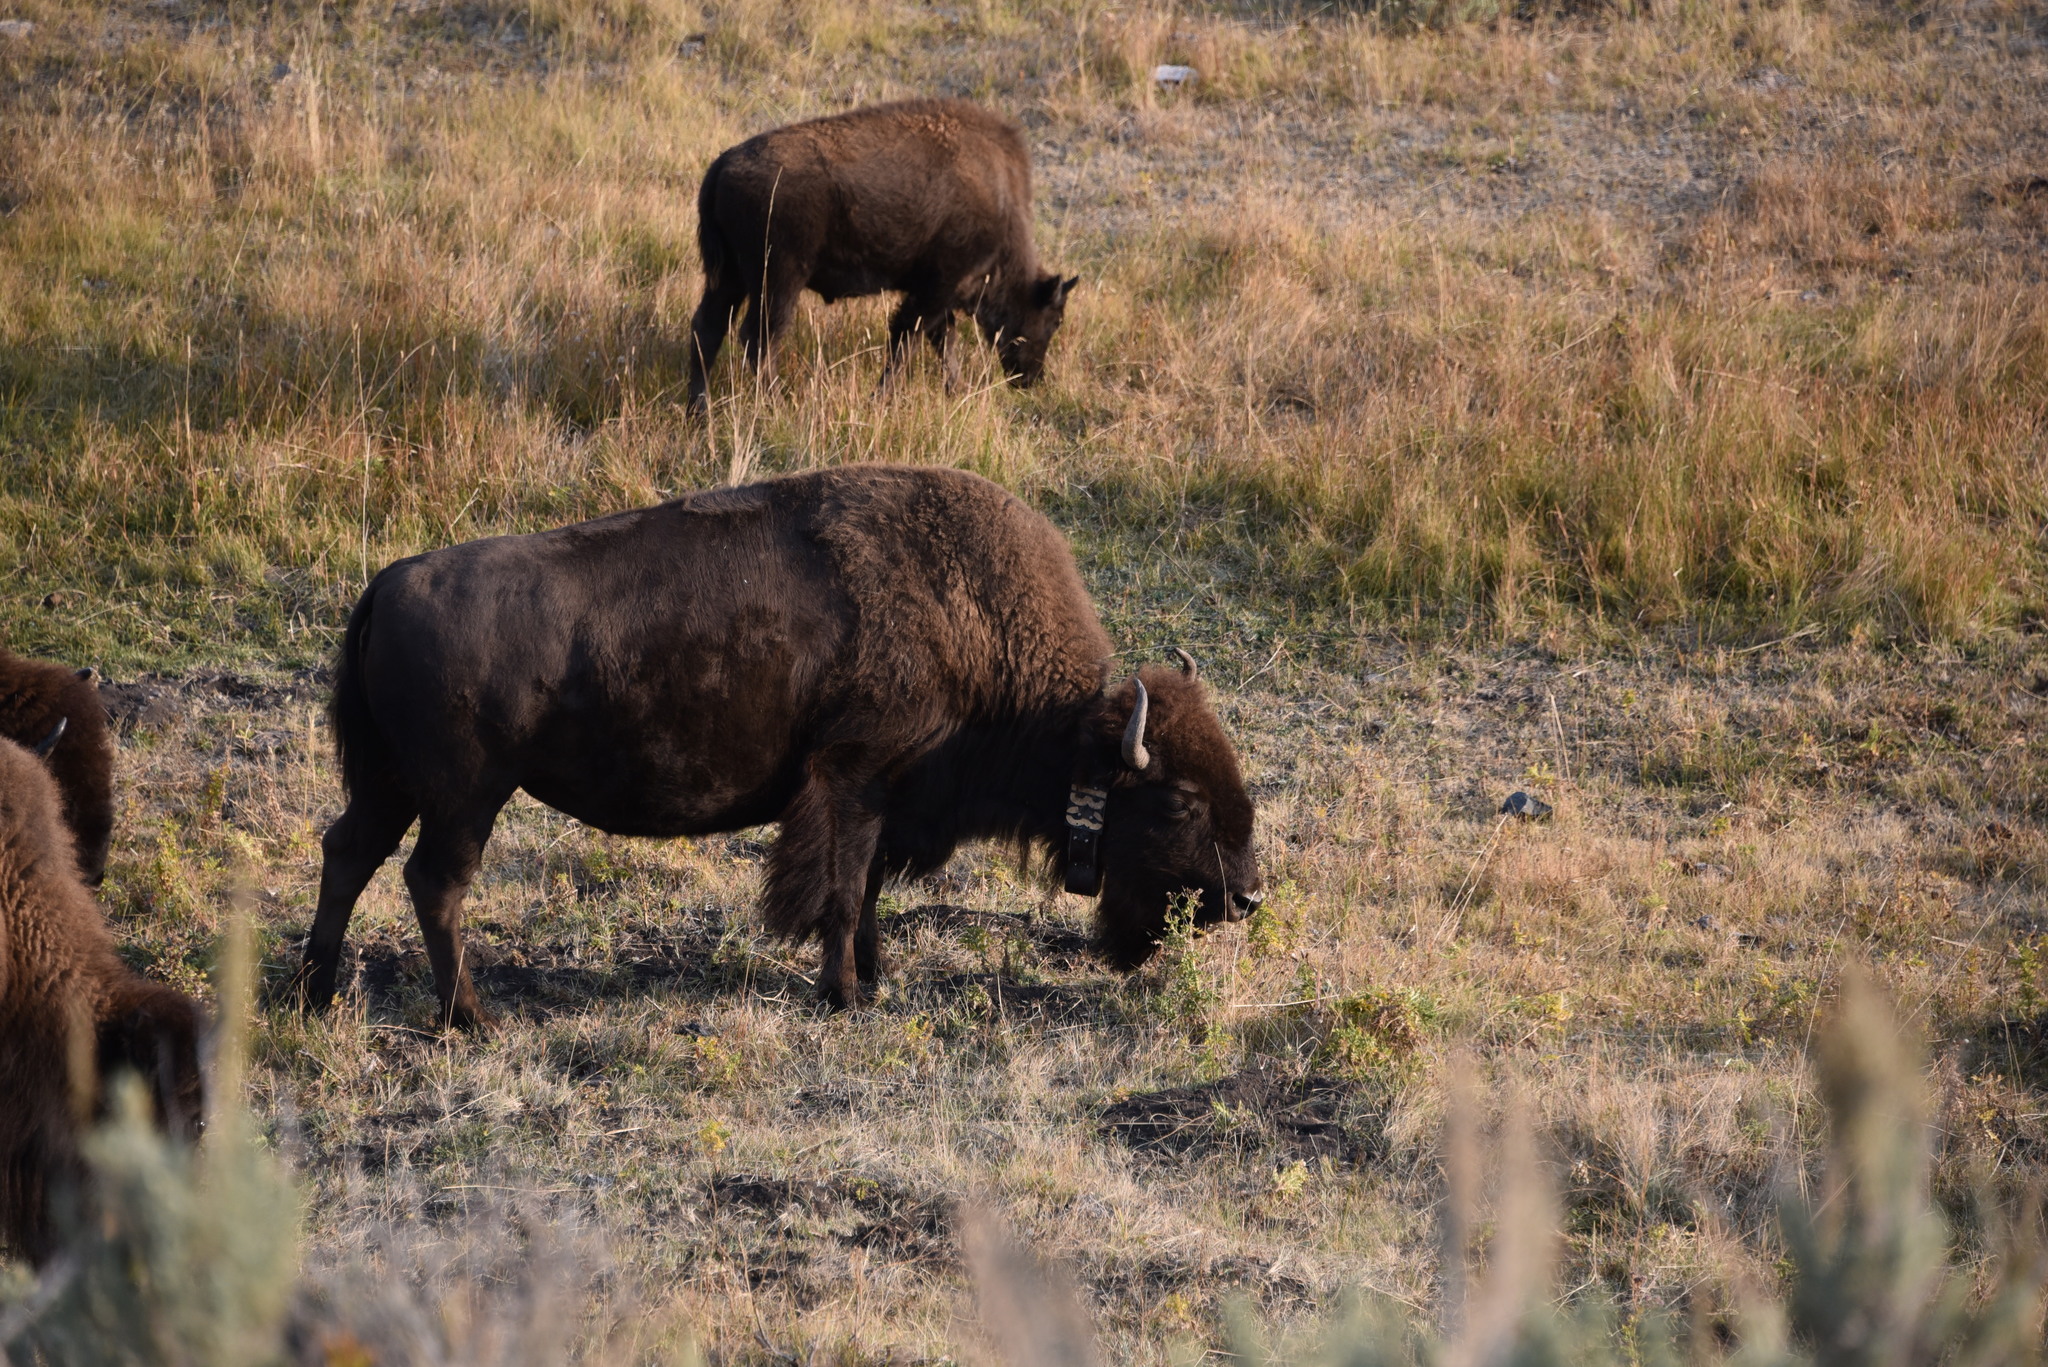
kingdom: Animalia
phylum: Chordata
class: Mammalia
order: Artiodactyla
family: Bovidae
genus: Bison
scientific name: Bison bison
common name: American bison
